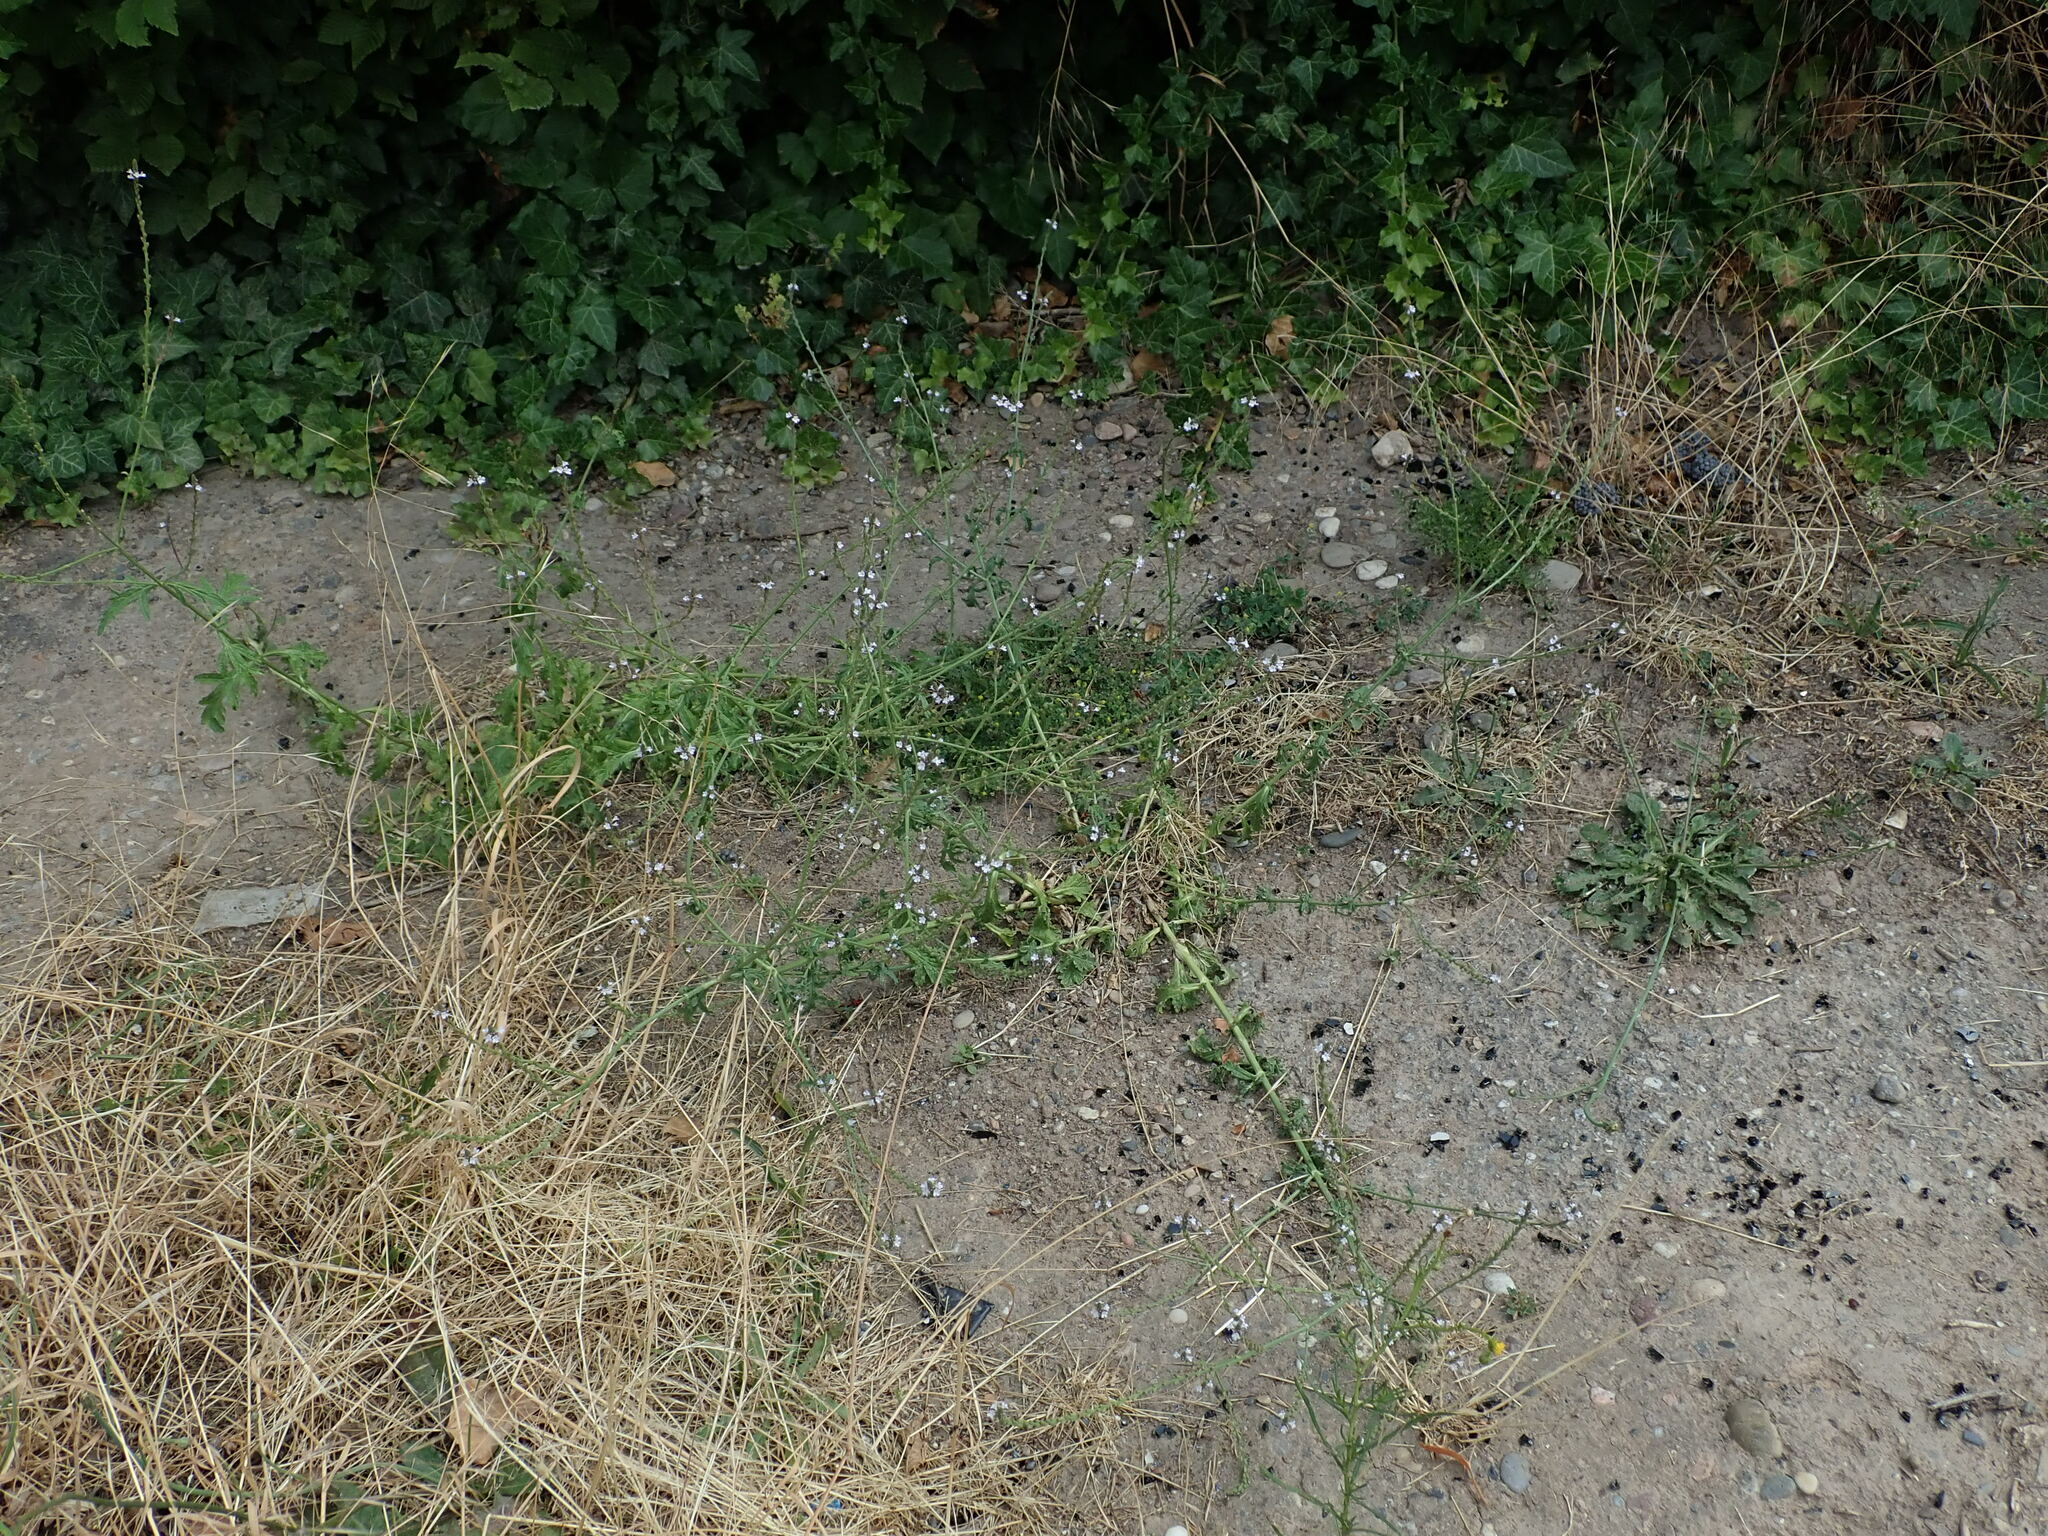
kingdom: Plantae
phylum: Tracheophyta
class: Magnoliopsida
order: Lamiales
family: Verbenaceae
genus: Verbena
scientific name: Verbena officinalis
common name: Vervain
